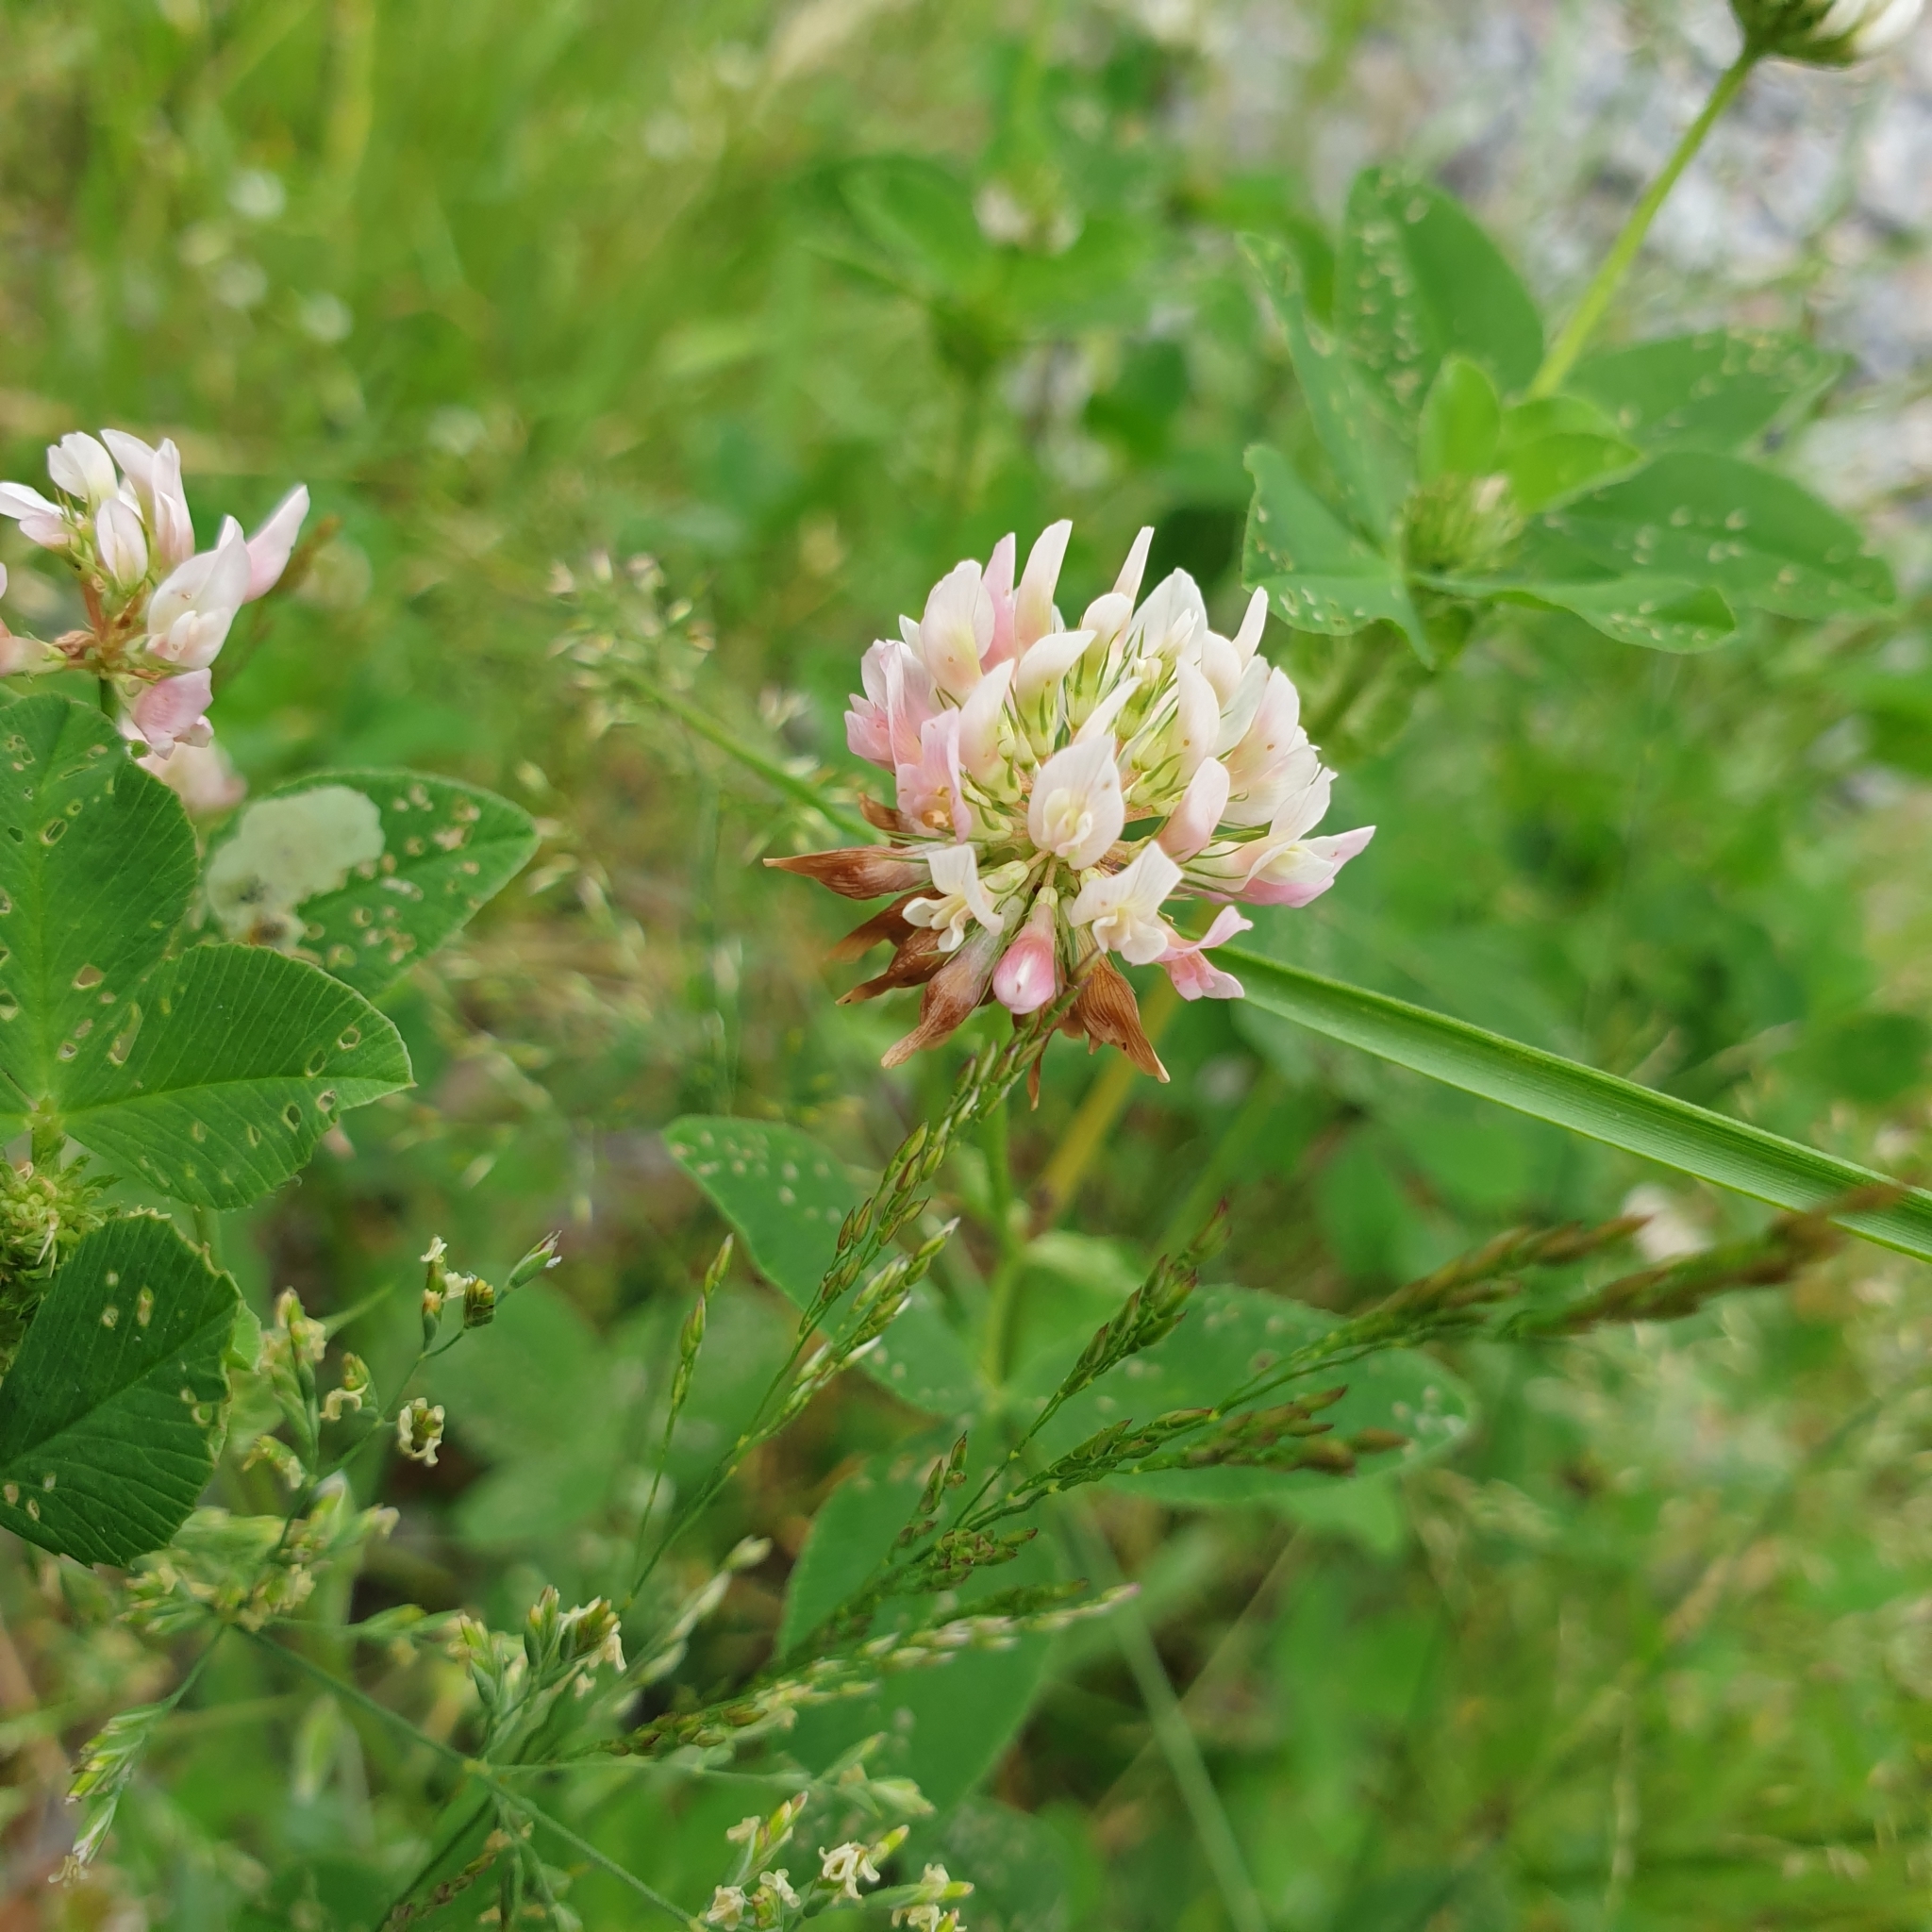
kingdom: Plantae
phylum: Tracheophyta
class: Magnoliopsida
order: Fabales
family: Fabaceae
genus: Trifolium
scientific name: Trifolium hybridum
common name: Alsike clover
